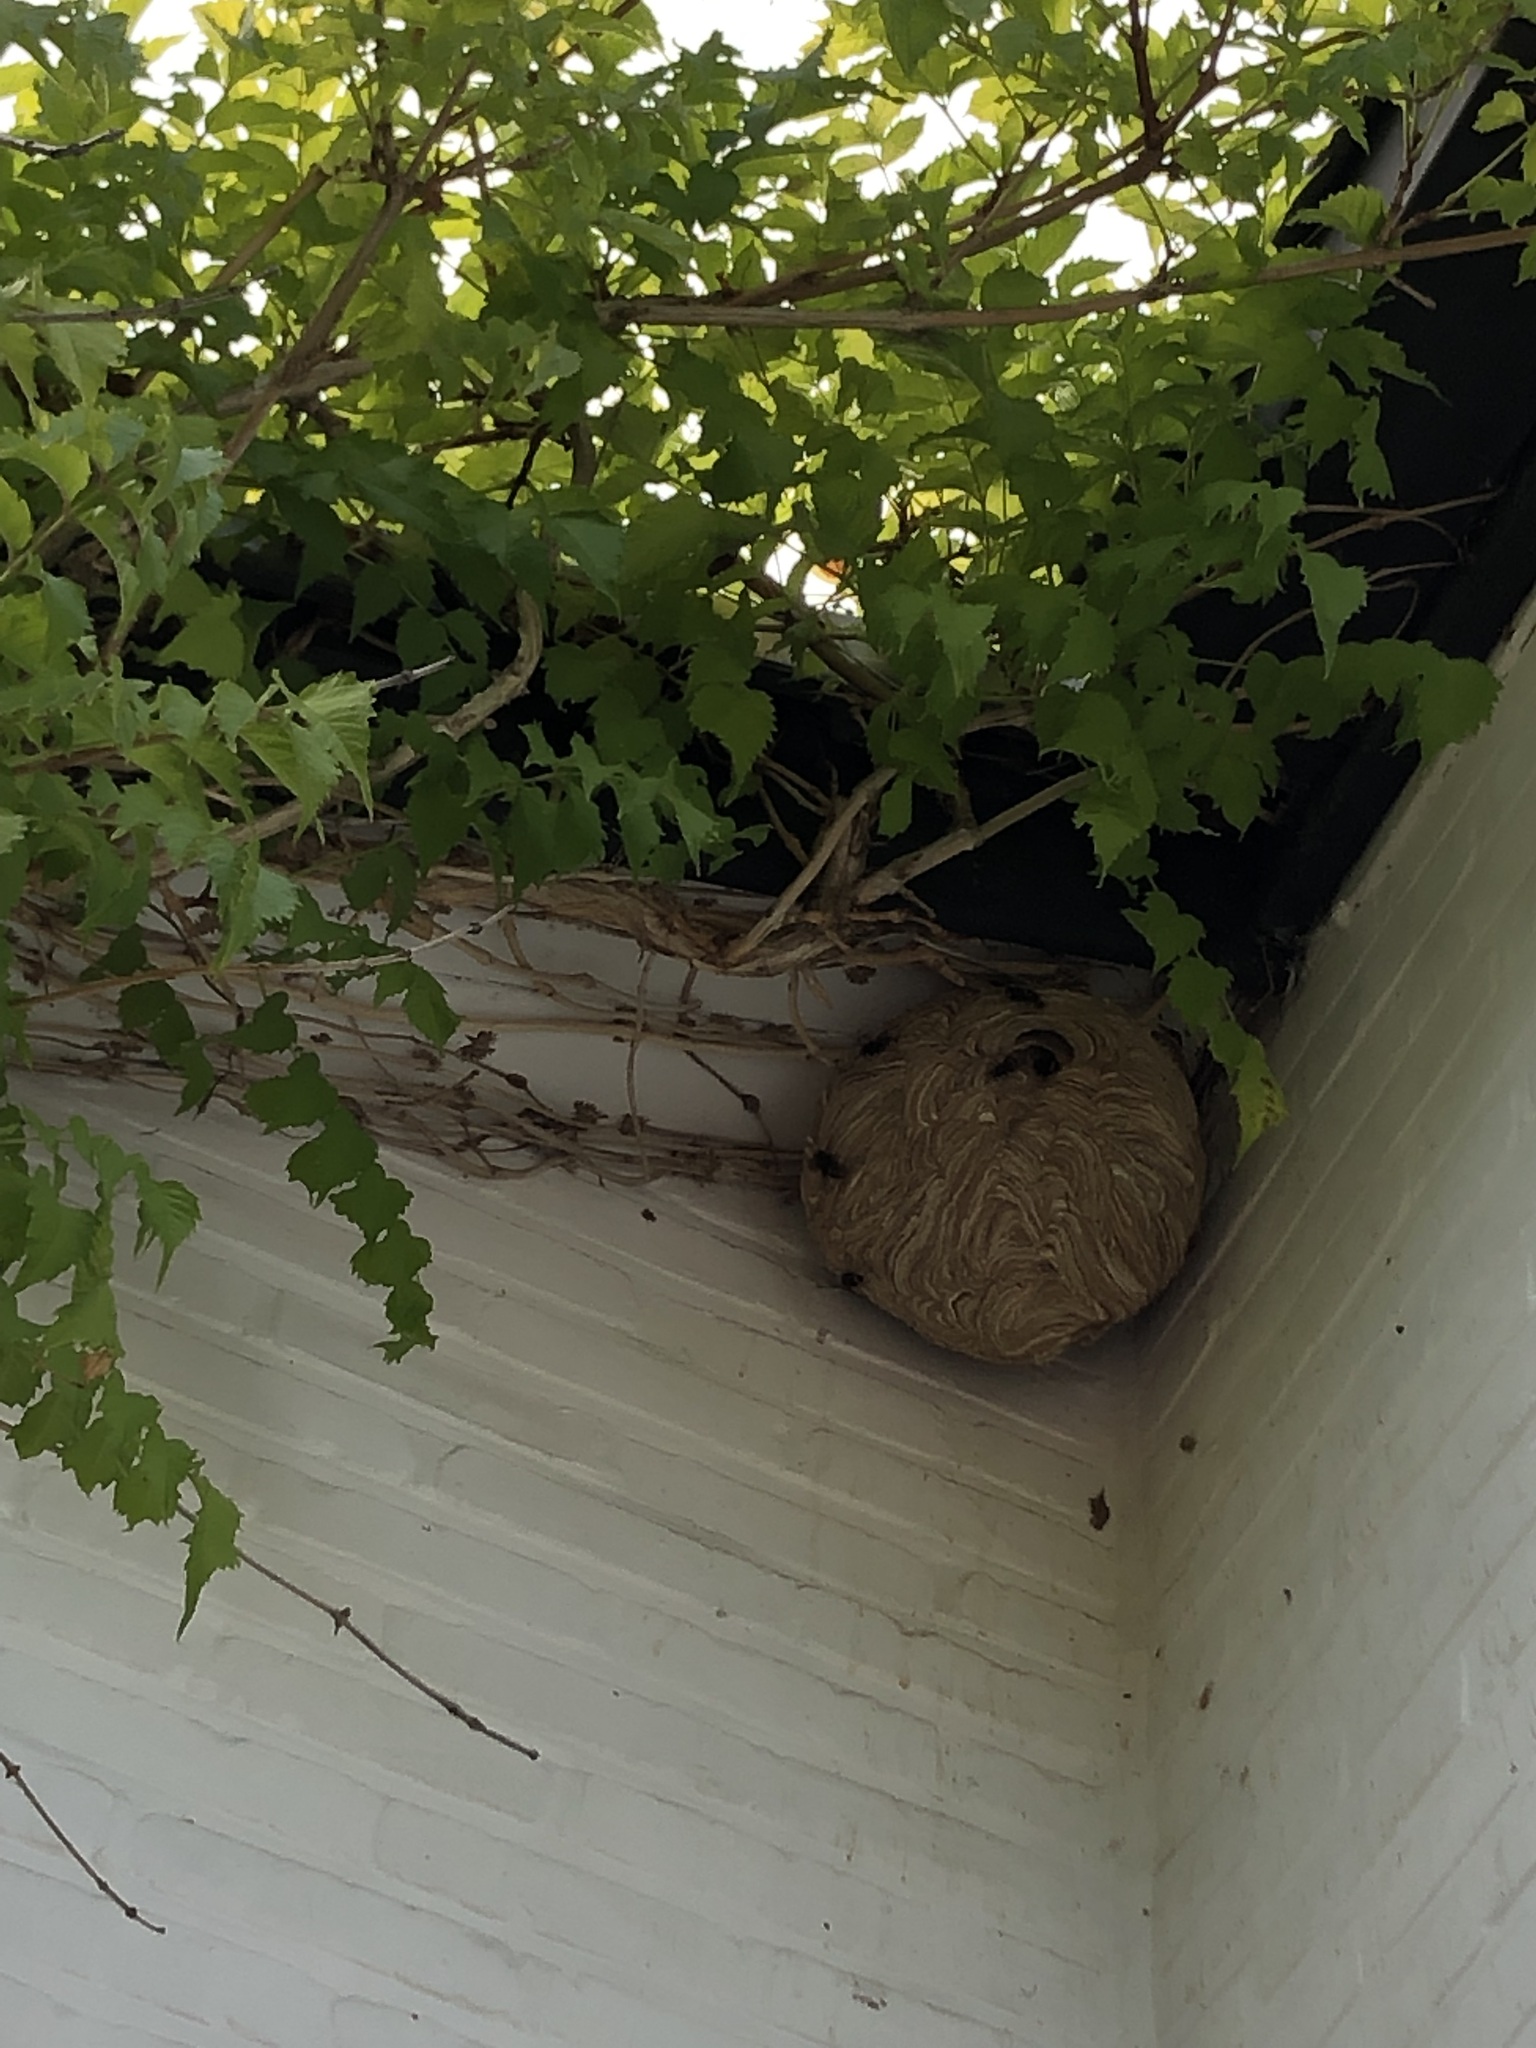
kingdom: Animalia
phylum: Arthropoda
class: Insecta
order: Hymenoptera
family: Vespidae
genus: Vespa
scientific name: Vespa velutina
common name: Asian hornet
